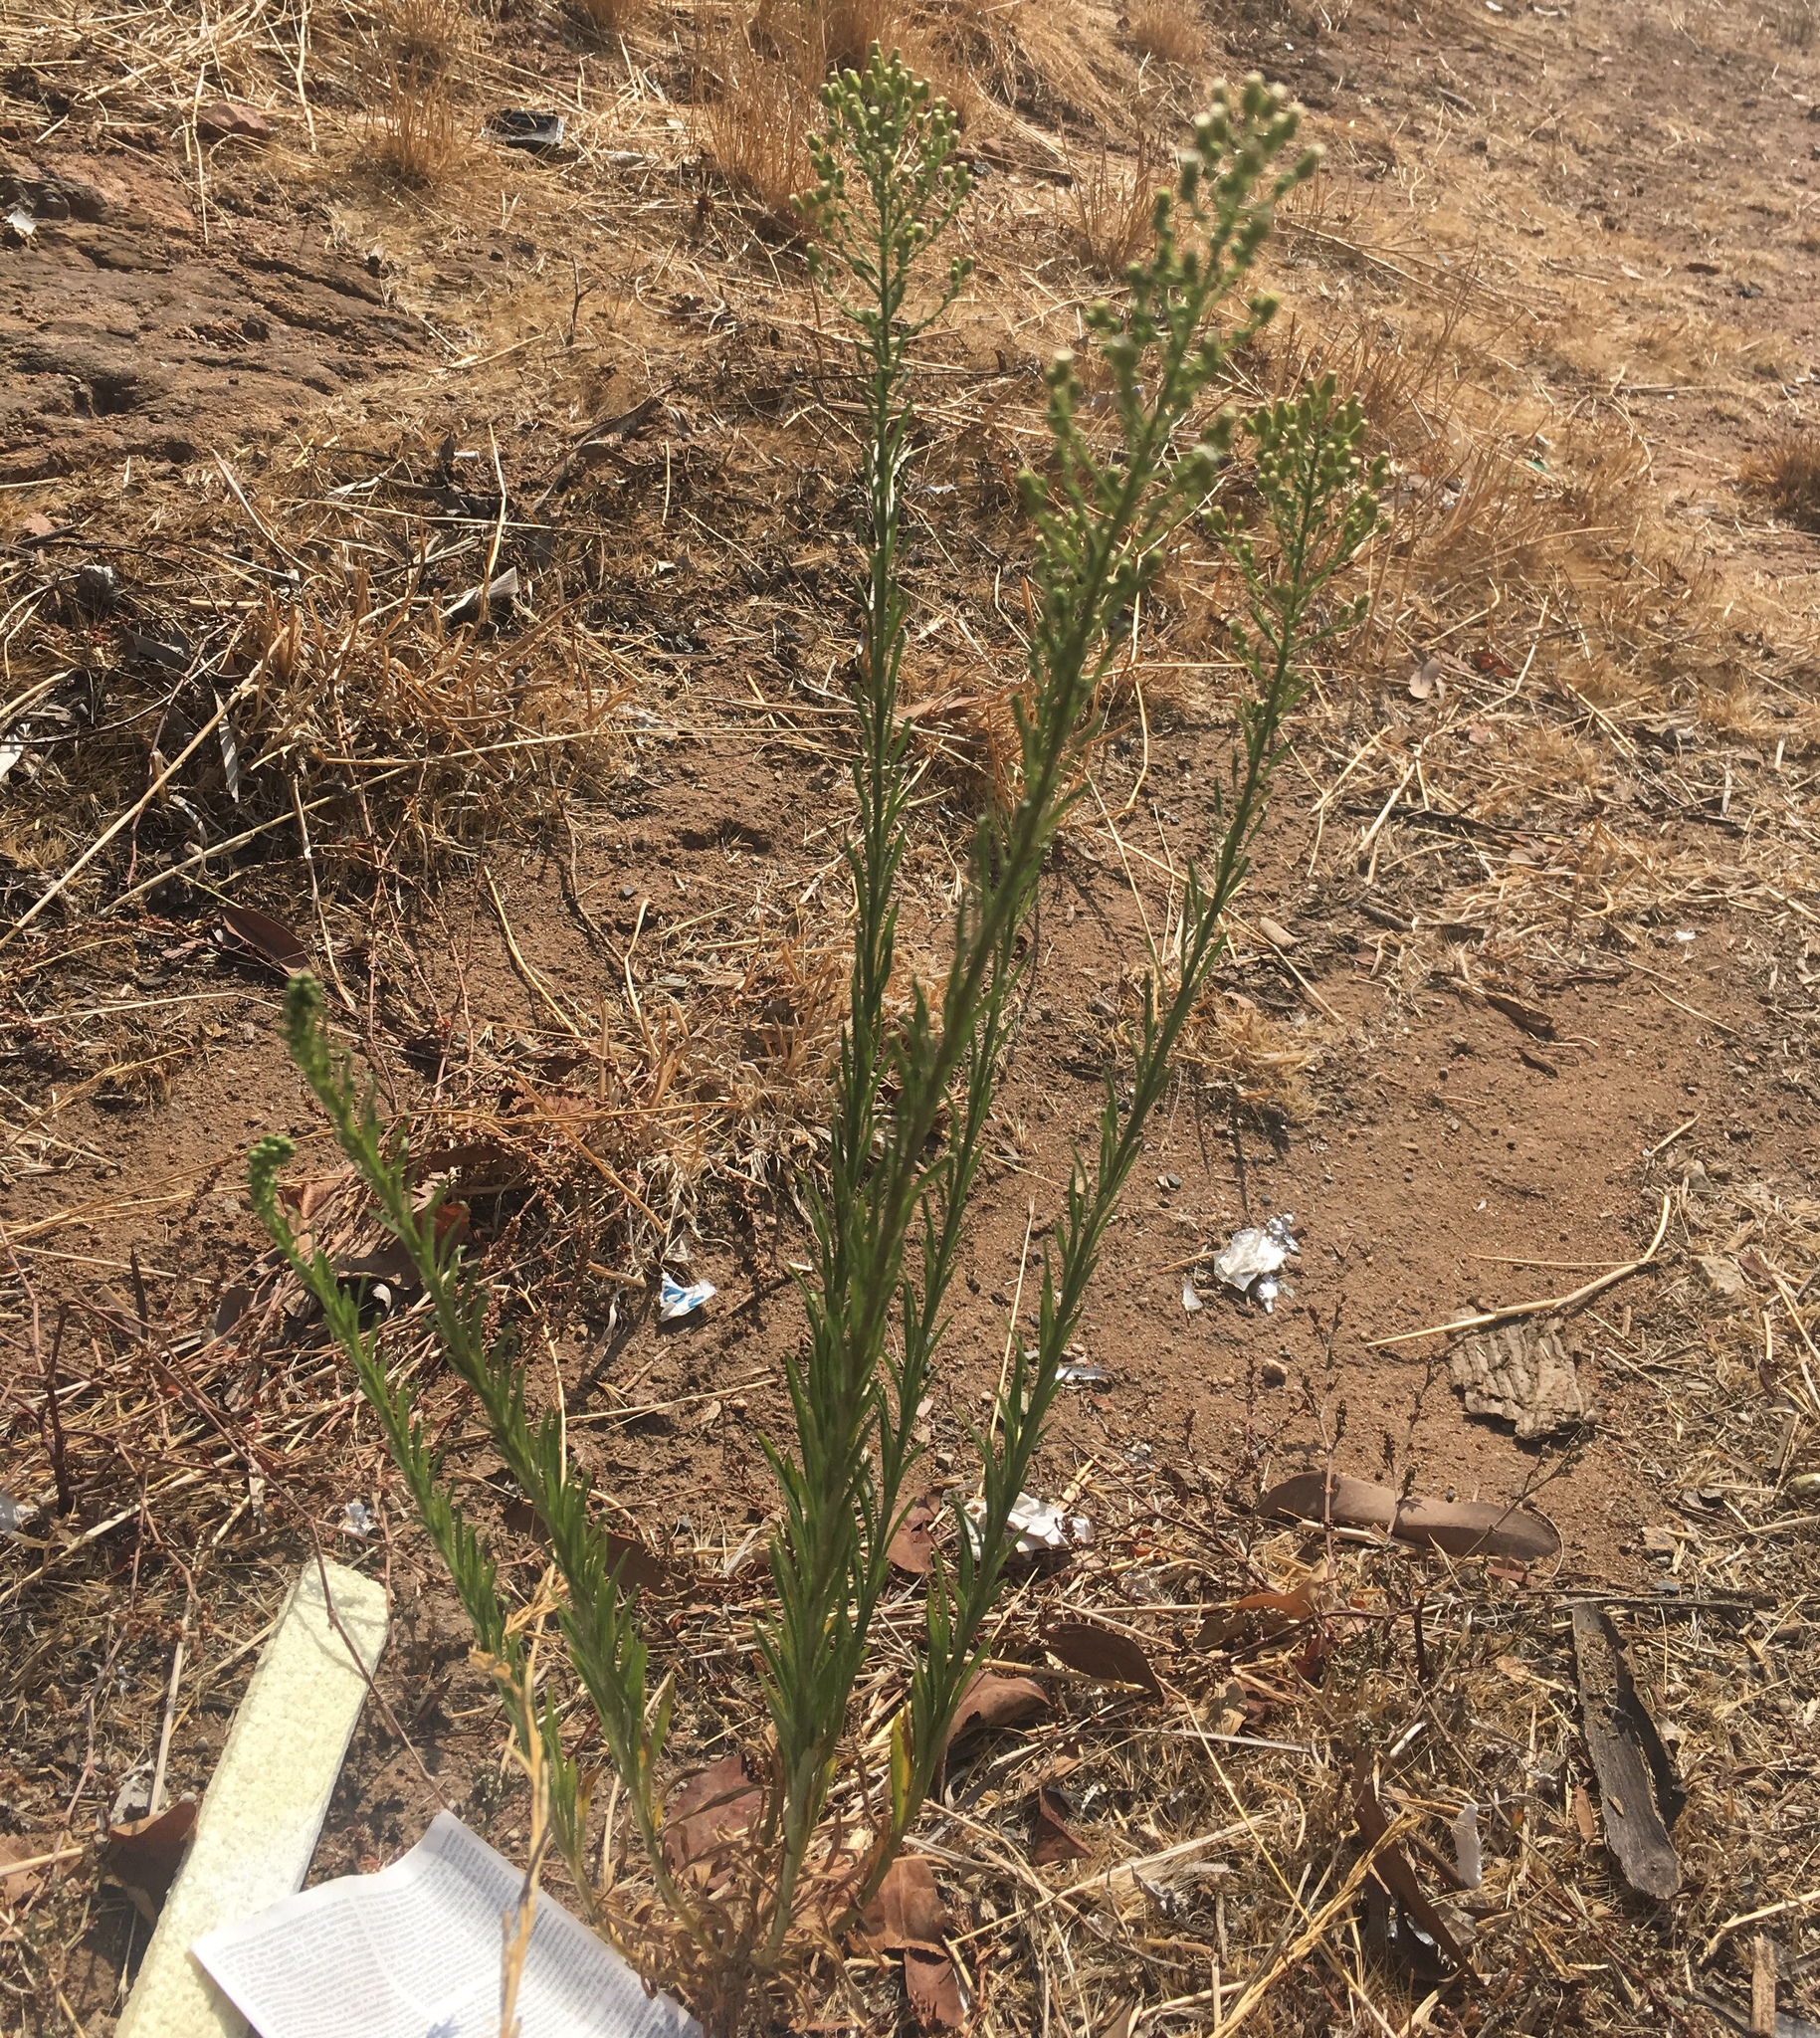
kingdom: Plantae
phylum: Tracheophyta
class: Magnoliopsida
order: Asterales
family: Asteraceae
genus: Erigeron
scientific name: Erigeron canadensis
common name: Canadian fleabane
